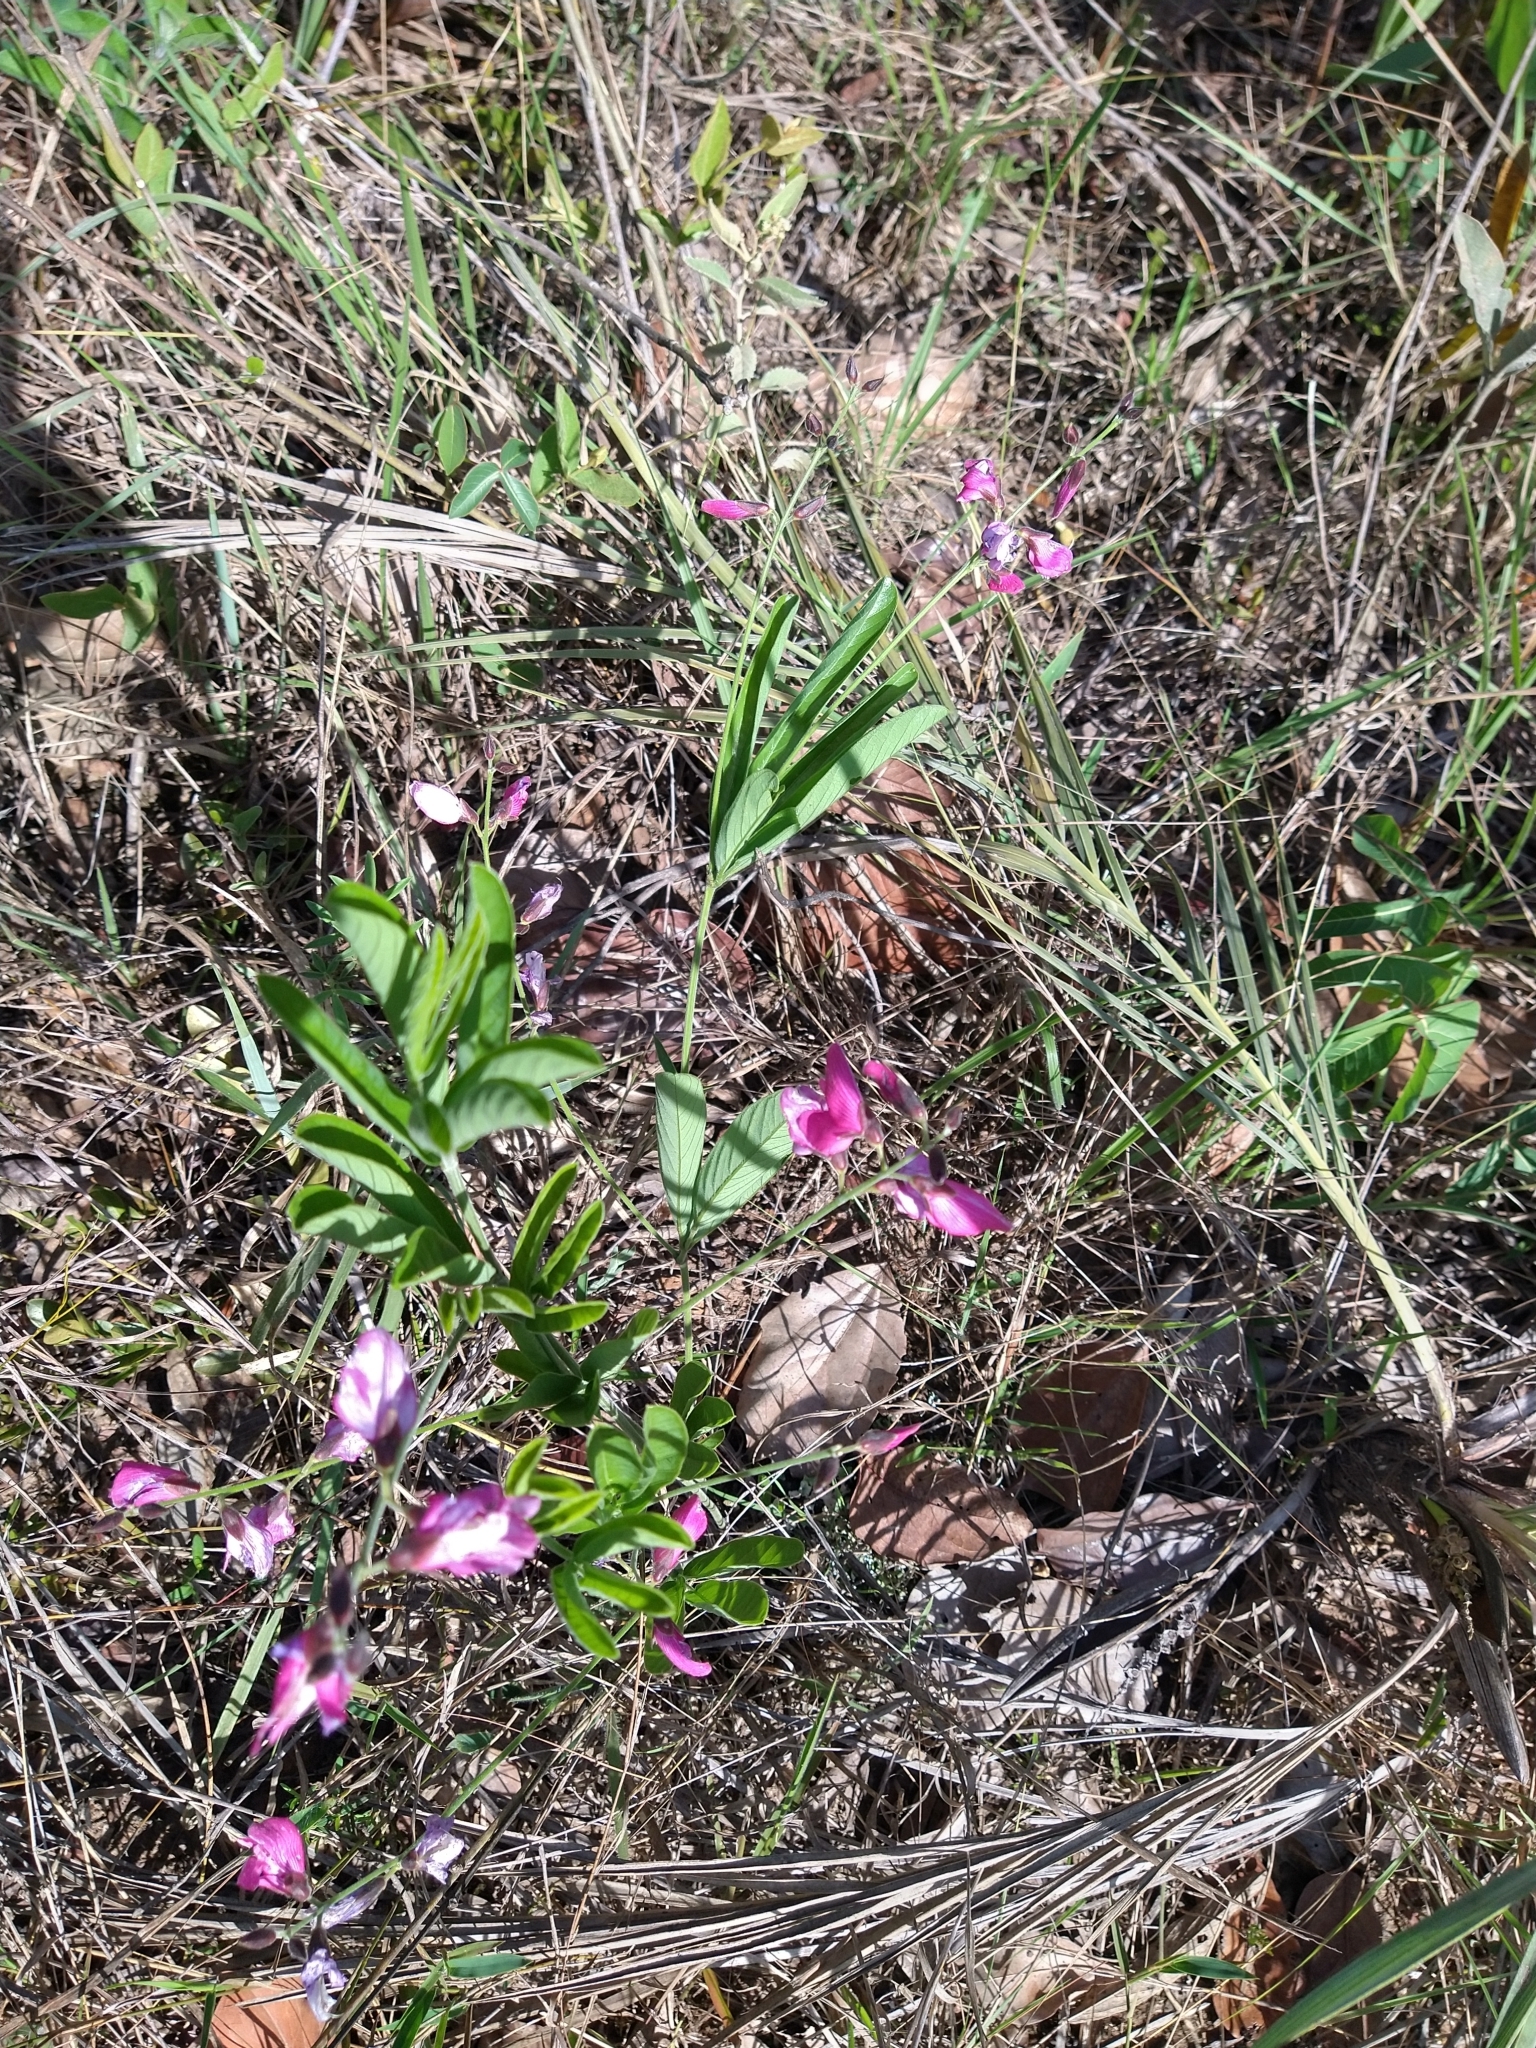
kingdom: Plantae
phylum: Tracheophyta
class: Magnoliopsida
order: Fabales
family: Fabaceae
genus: Cerradicola
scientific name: Cerradicola peduncularis
